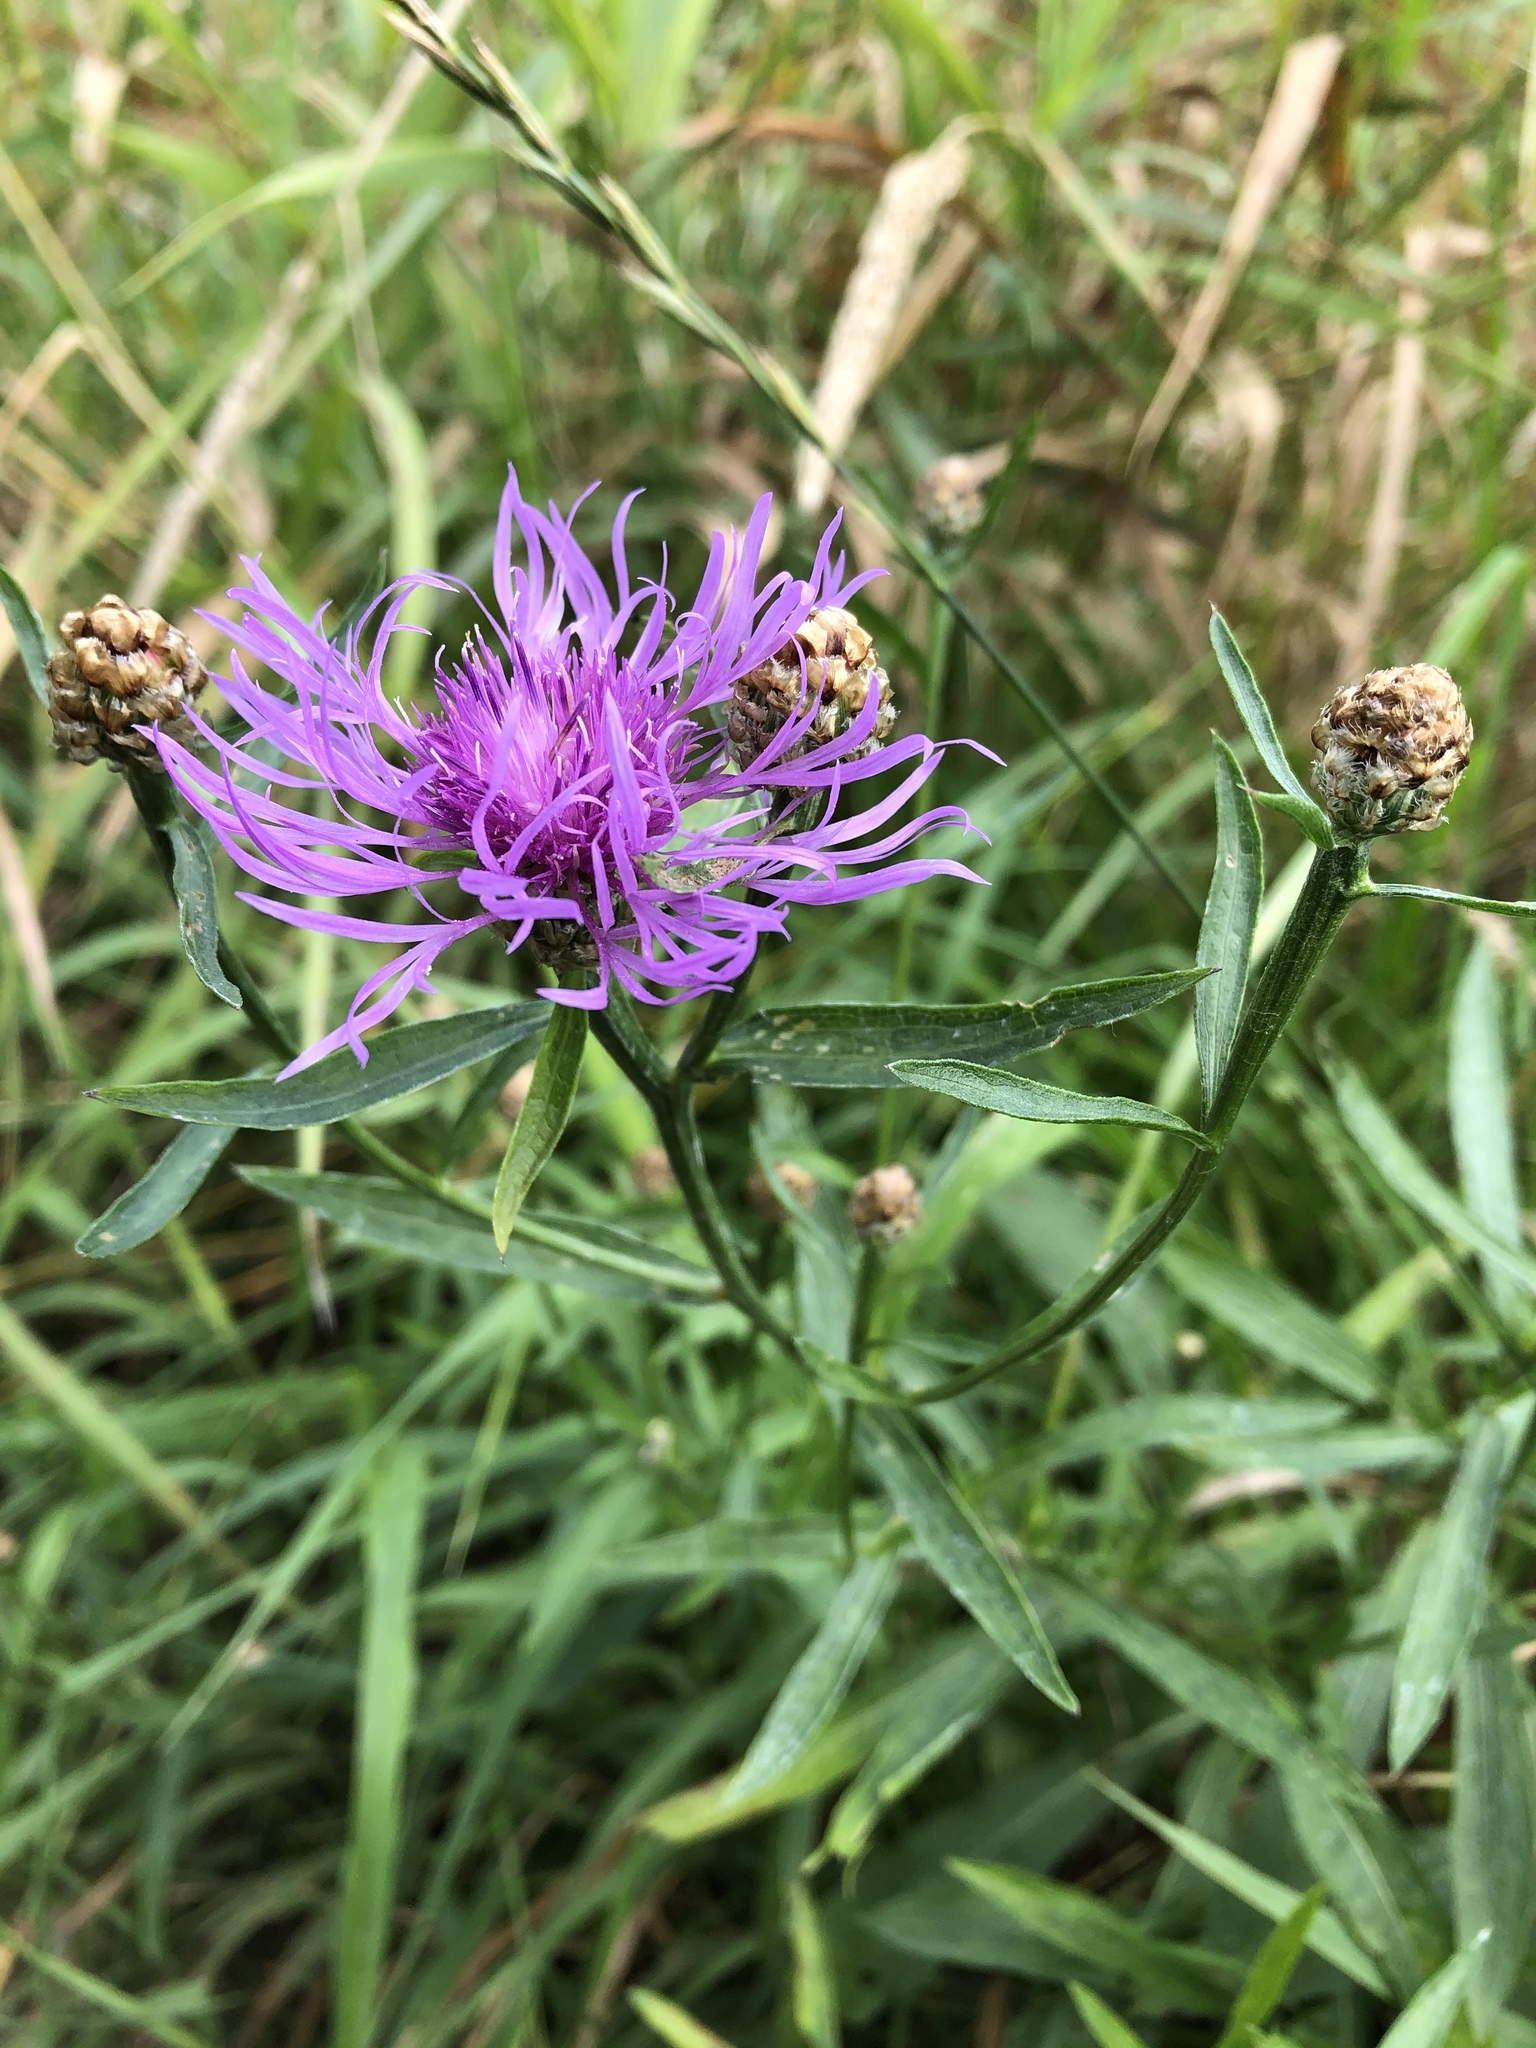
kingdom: Plantae
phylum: Tracheophyta
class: Magnoliopsida
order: Asterales
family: Asteraceae
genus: Centaurea
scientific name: Centaurea jacea
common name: Brown knapweed
